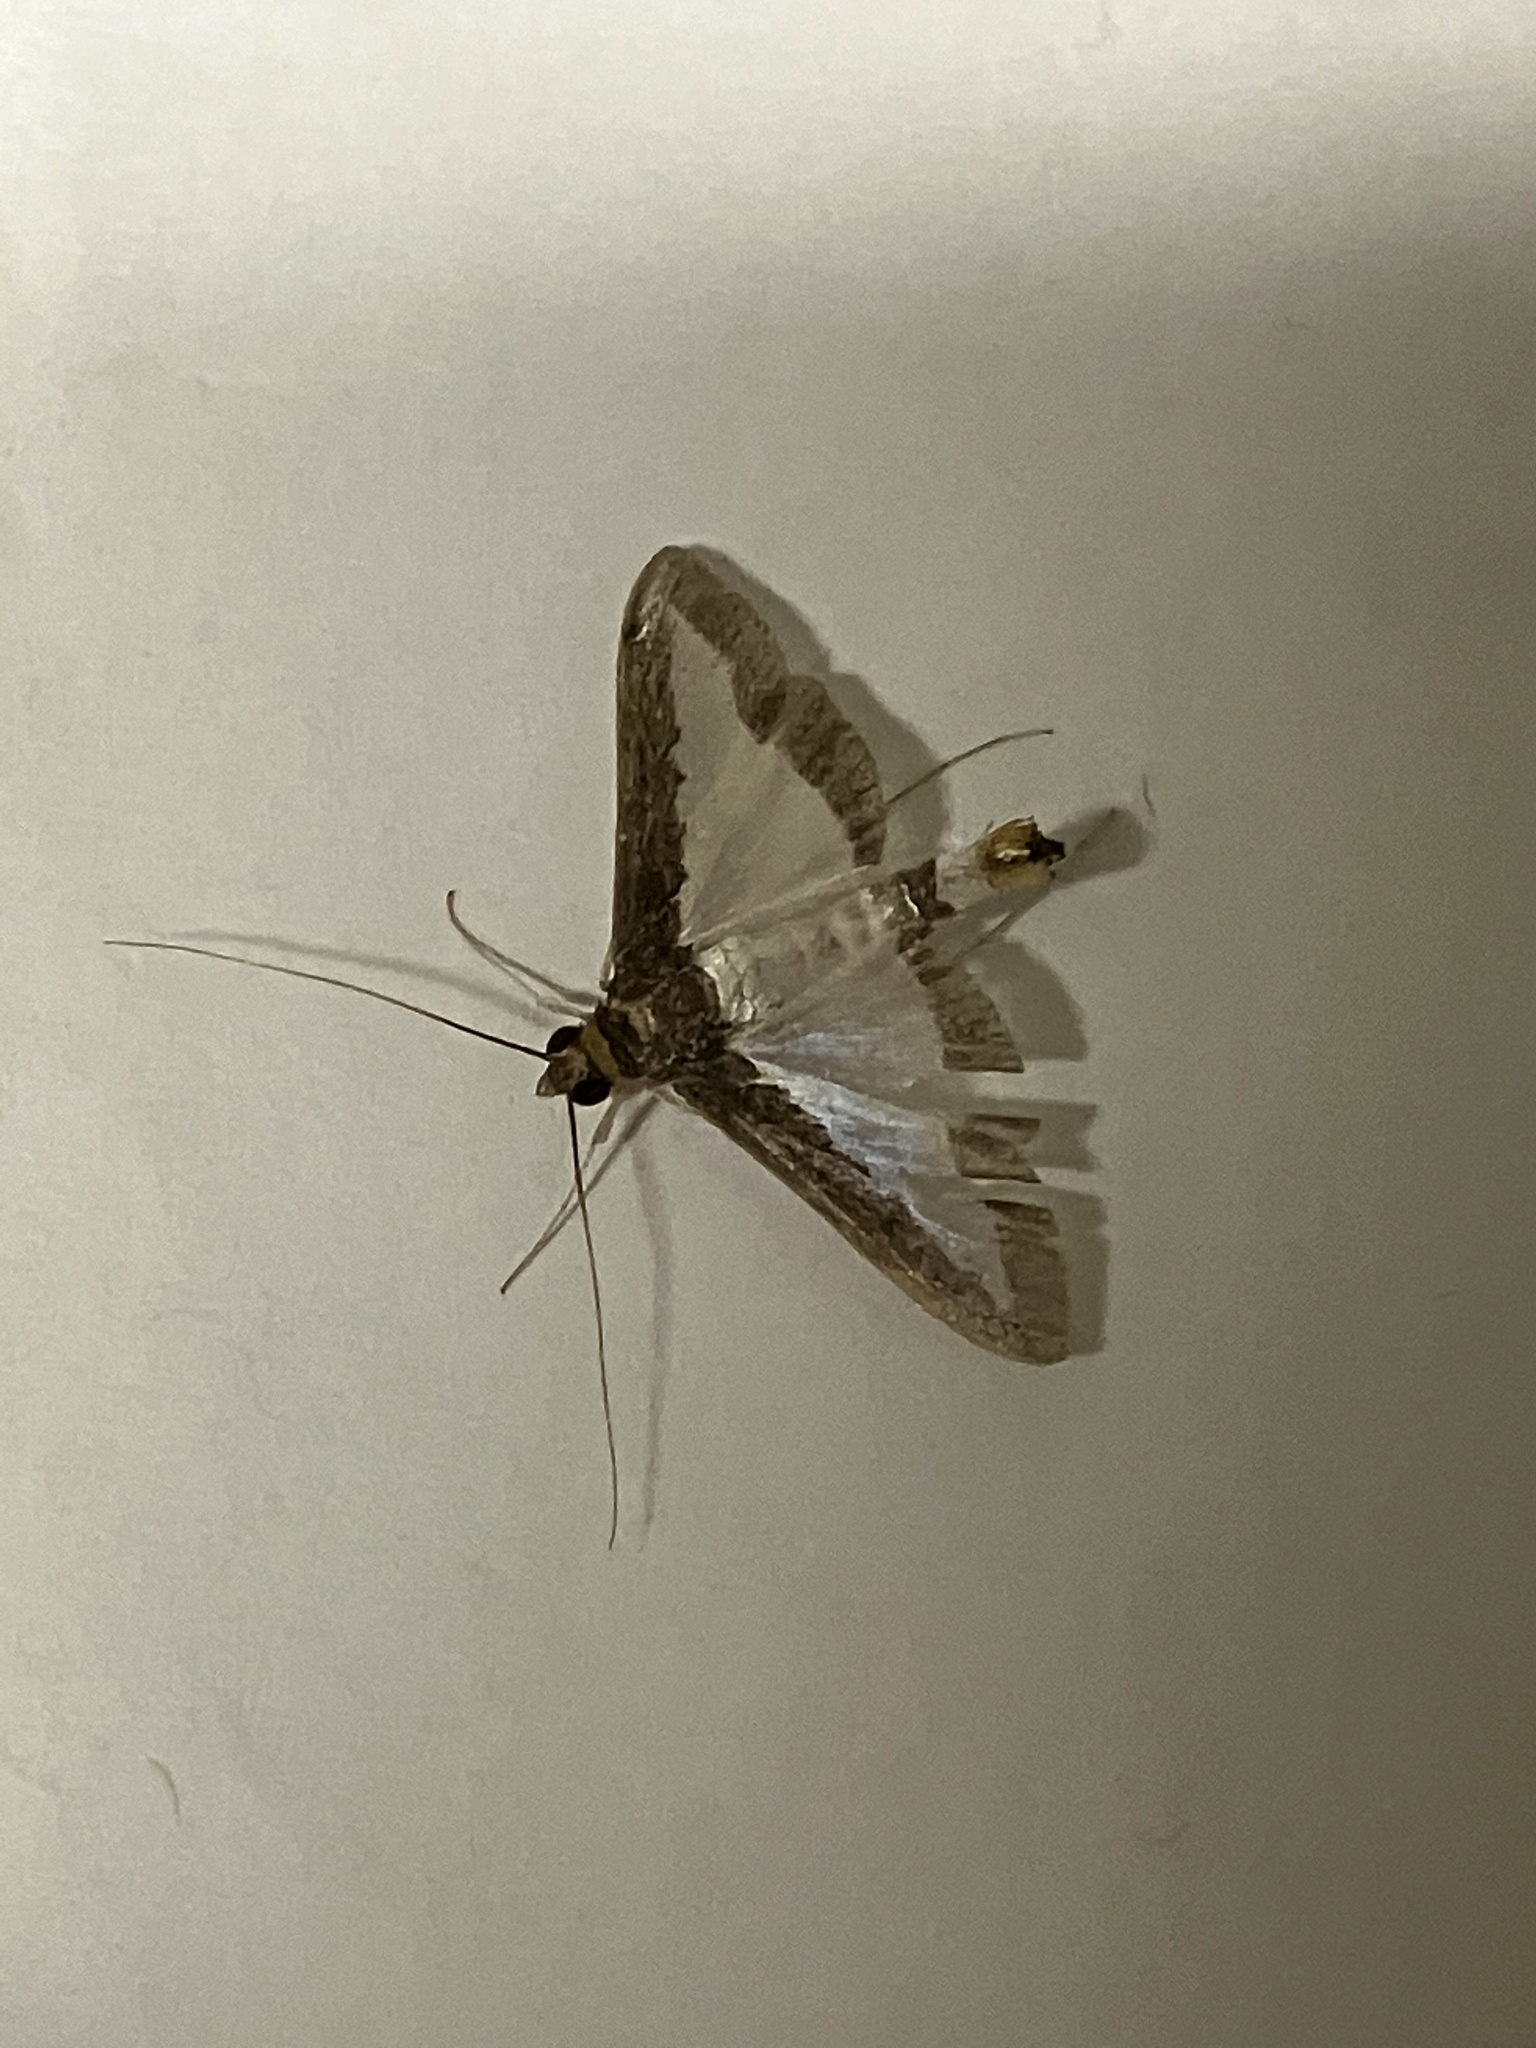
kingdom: Animalia
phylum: Arthropoda
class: Insecta
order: Lepidoptera
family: Crambidae
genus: Diaphania
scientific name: Diaphania indica
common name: Cucumber moth
